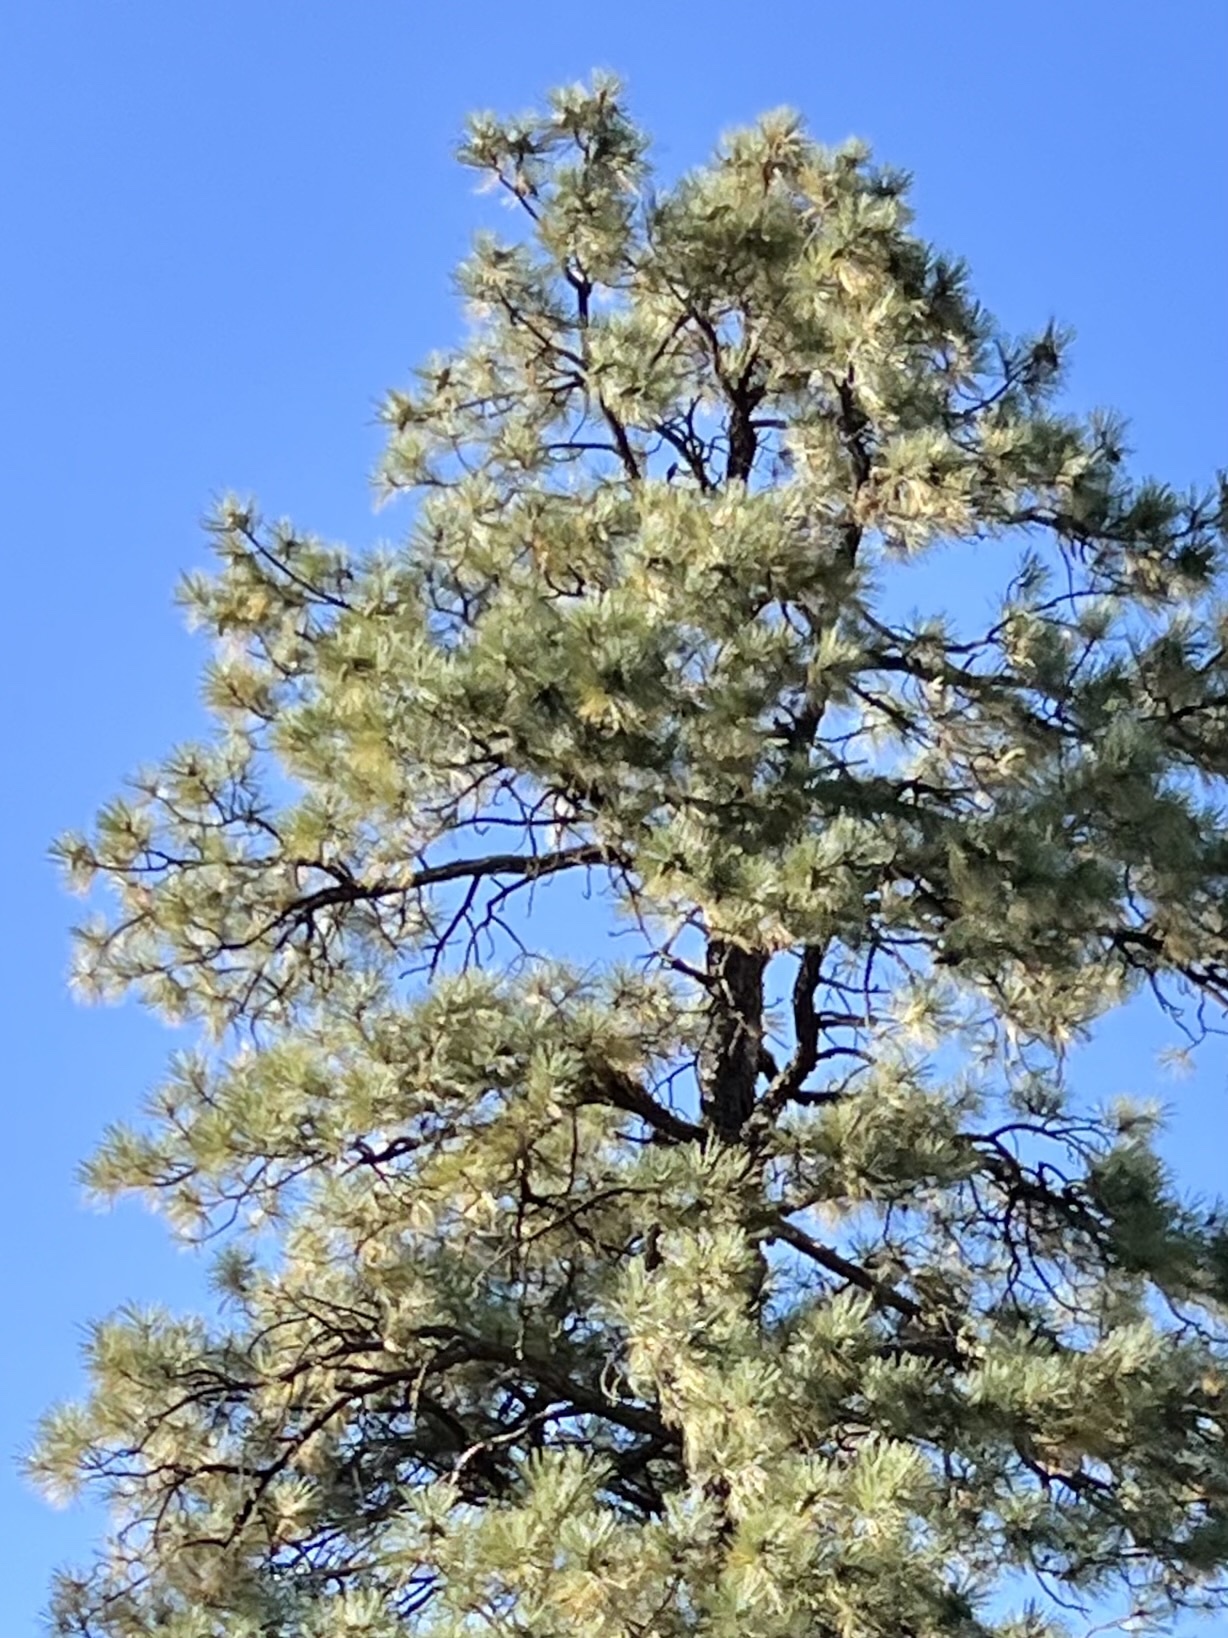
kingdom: Plantae
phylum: Tracheophyta
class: Pinopsida
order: Pinales
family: Pinaceae
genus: Pinus
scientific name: Pinus ponderosa
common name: Western yellow-pine
